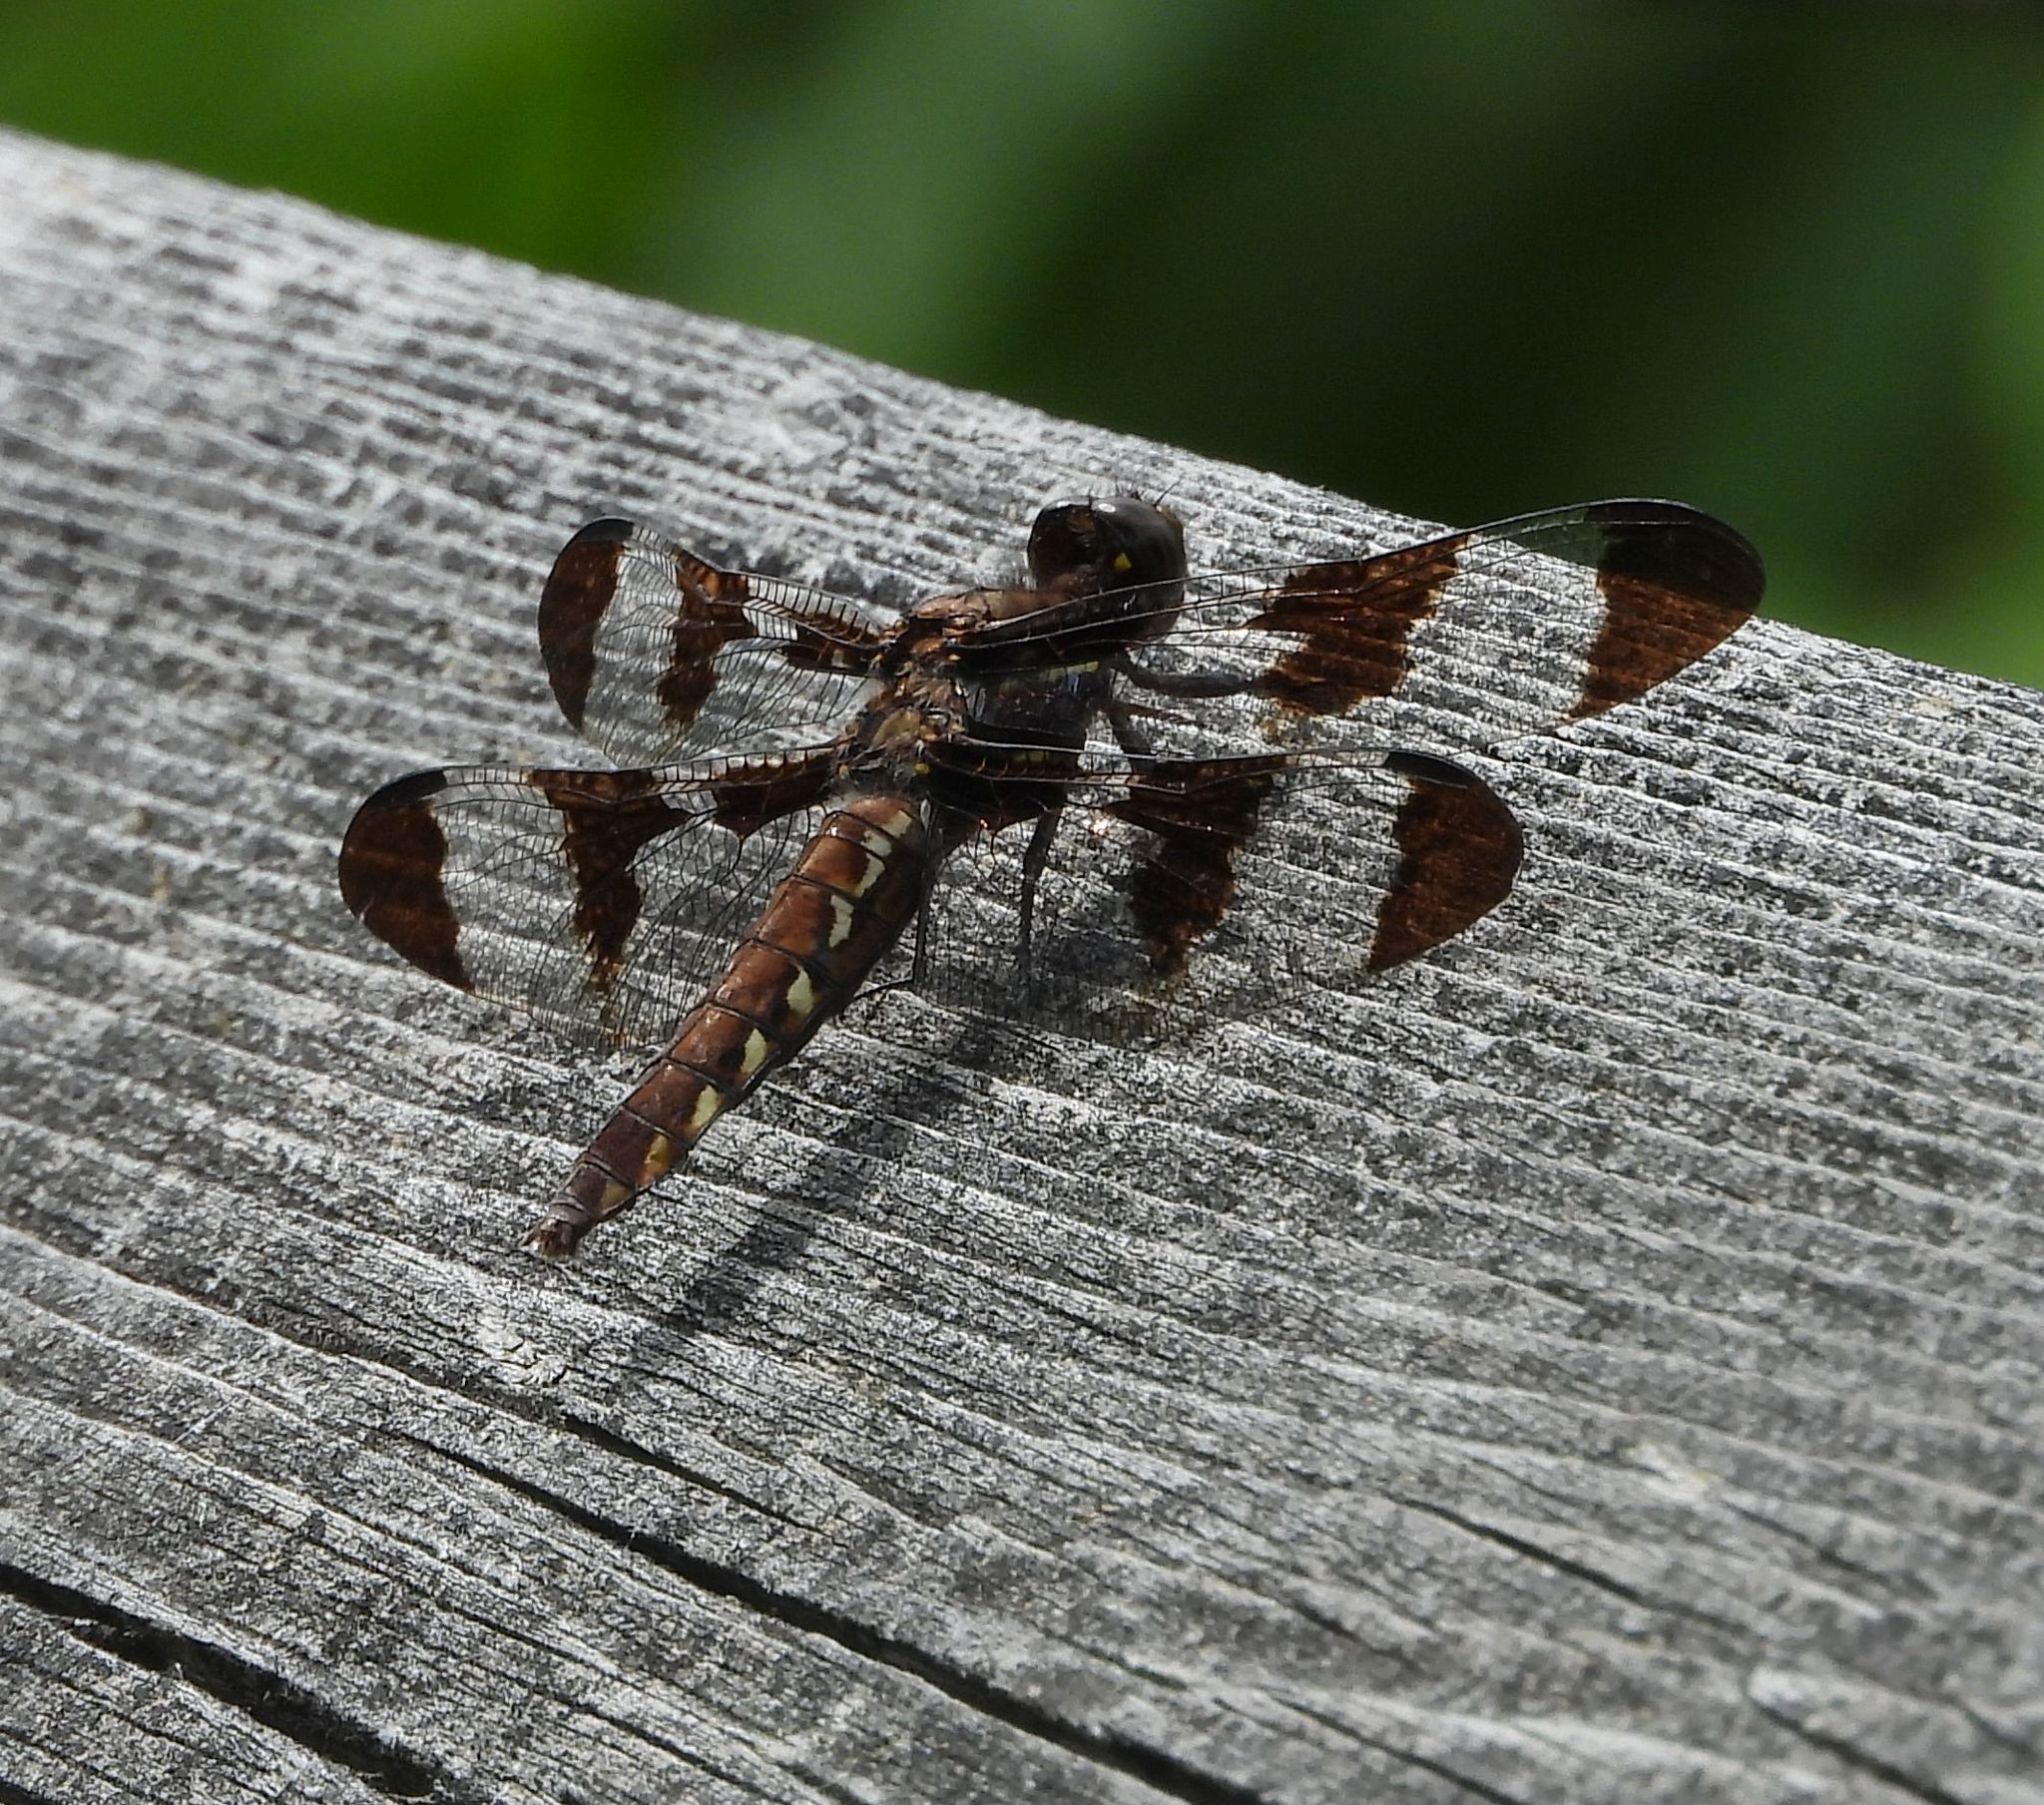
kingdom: Animalia
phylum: Arthropoda
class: Insecta
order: Odonata
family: Libellulidae
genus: Plathemis
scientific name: Plathemis lydia
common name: Common whitetail
